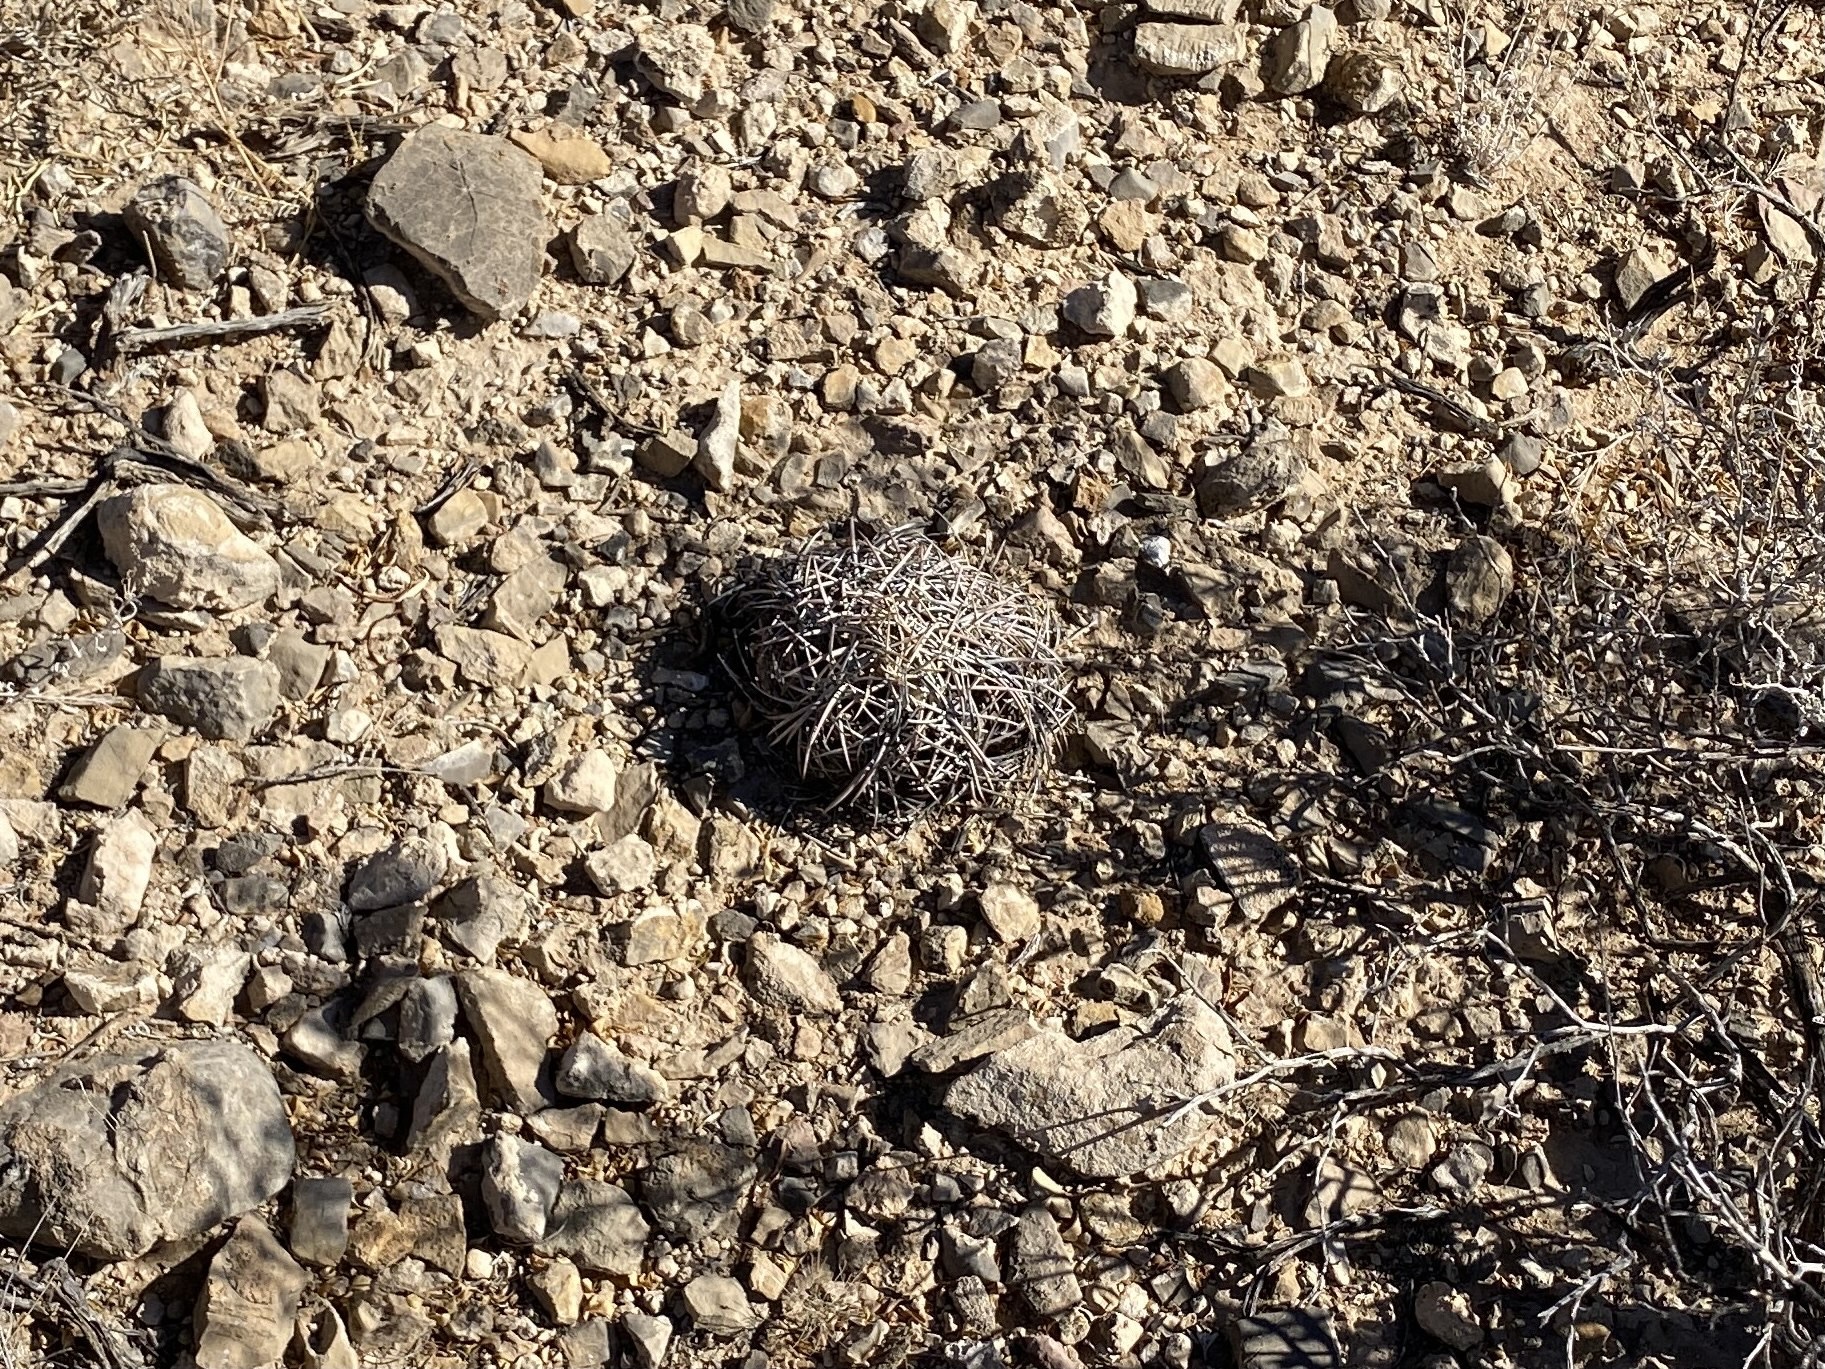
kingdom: Plantae
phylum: Tracheophyta
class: Magnoliopsida
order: Caryophyllales
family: Cactaceae
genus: Echinocactus
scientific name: Echinocactus horizonthalonius
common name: Devilshead
